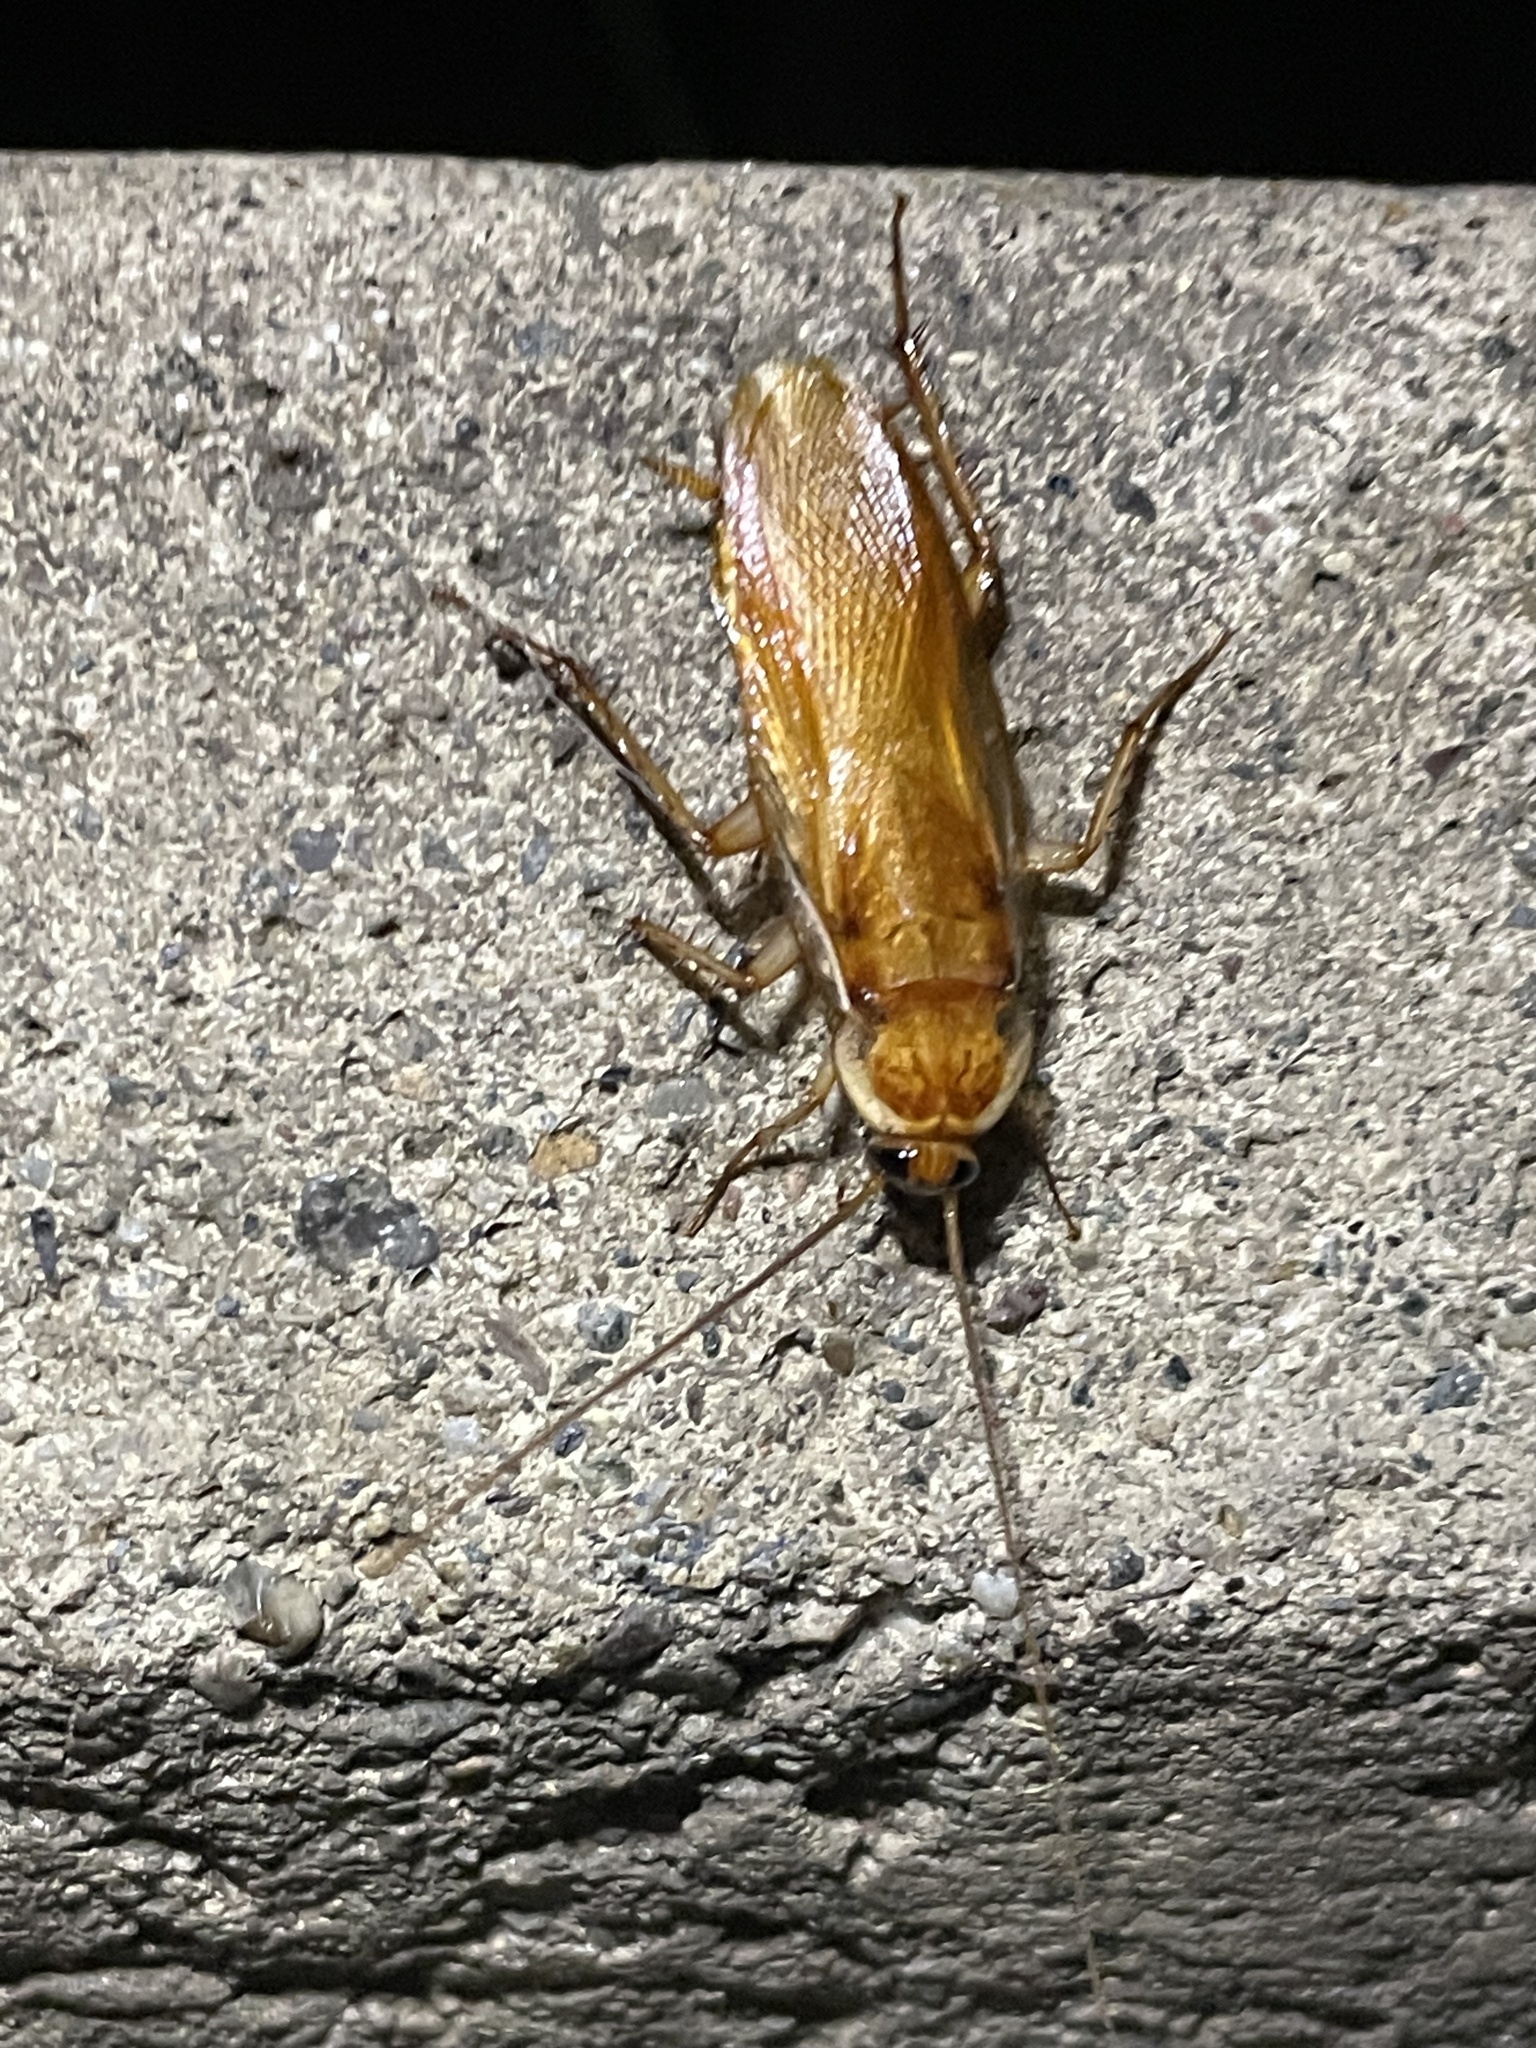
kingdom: Animalia
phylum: Arthropoda
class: Insecta
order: Blattodea
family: Blattidae
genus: Periplaneta
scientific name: Periplaneta lateralis
